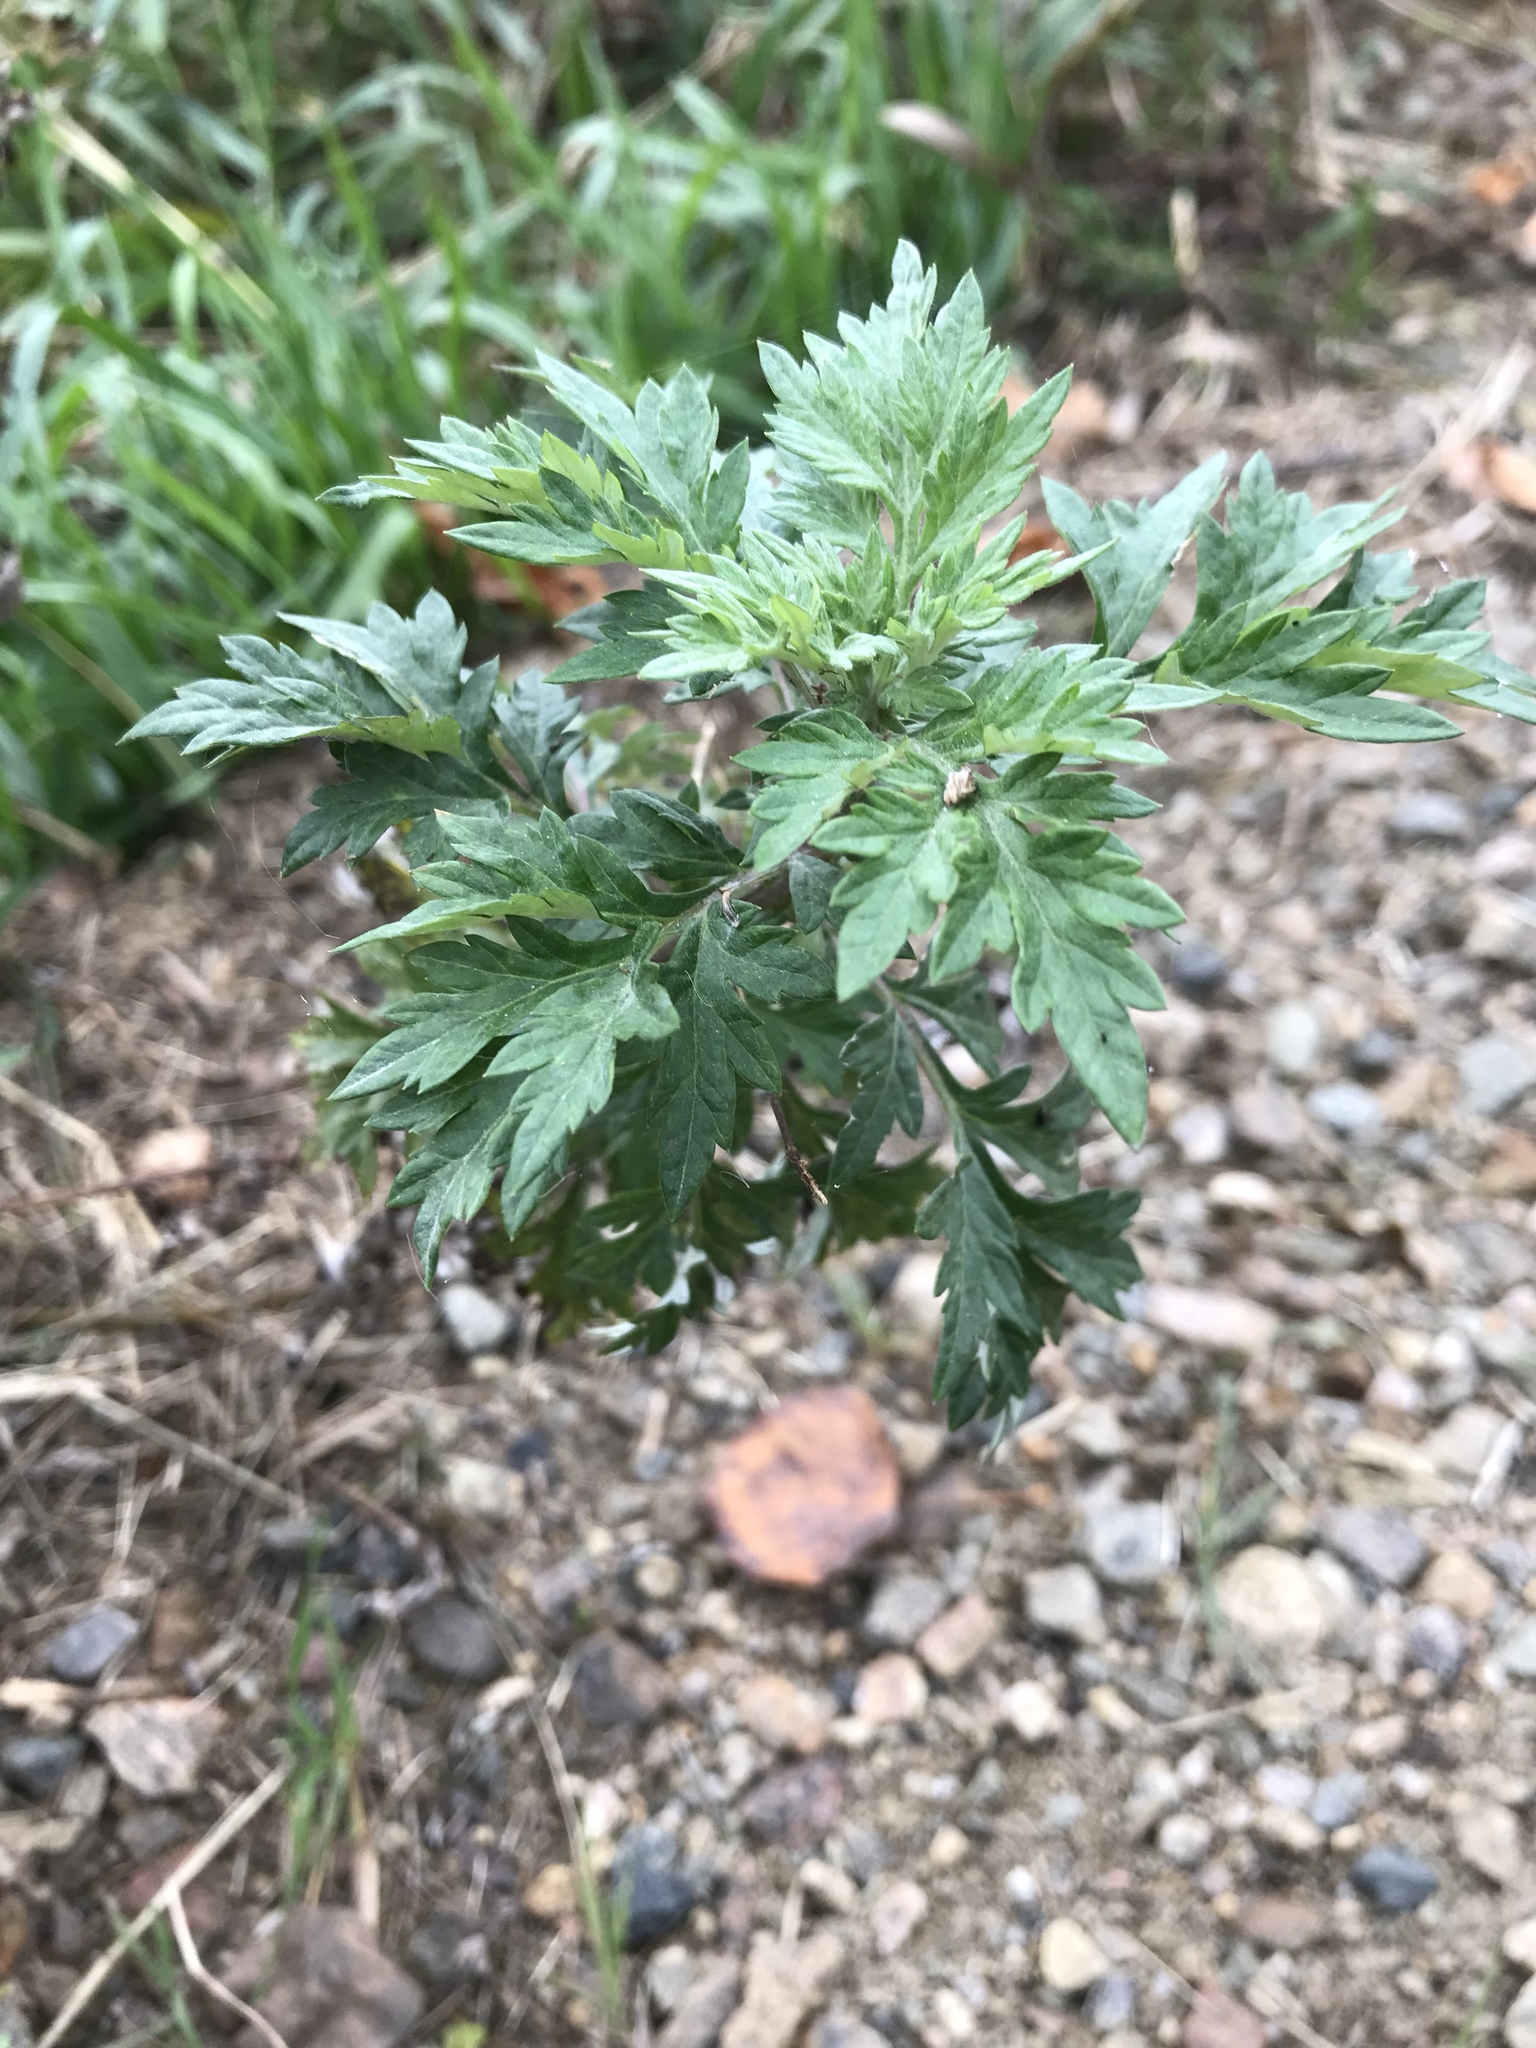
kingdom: Plantae
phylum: Tracheophyta
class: Magnoliopsida
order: Asterales
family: Asteraceae
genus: Artemisia
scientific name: Artemisia vulgaris
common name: Mugwort
